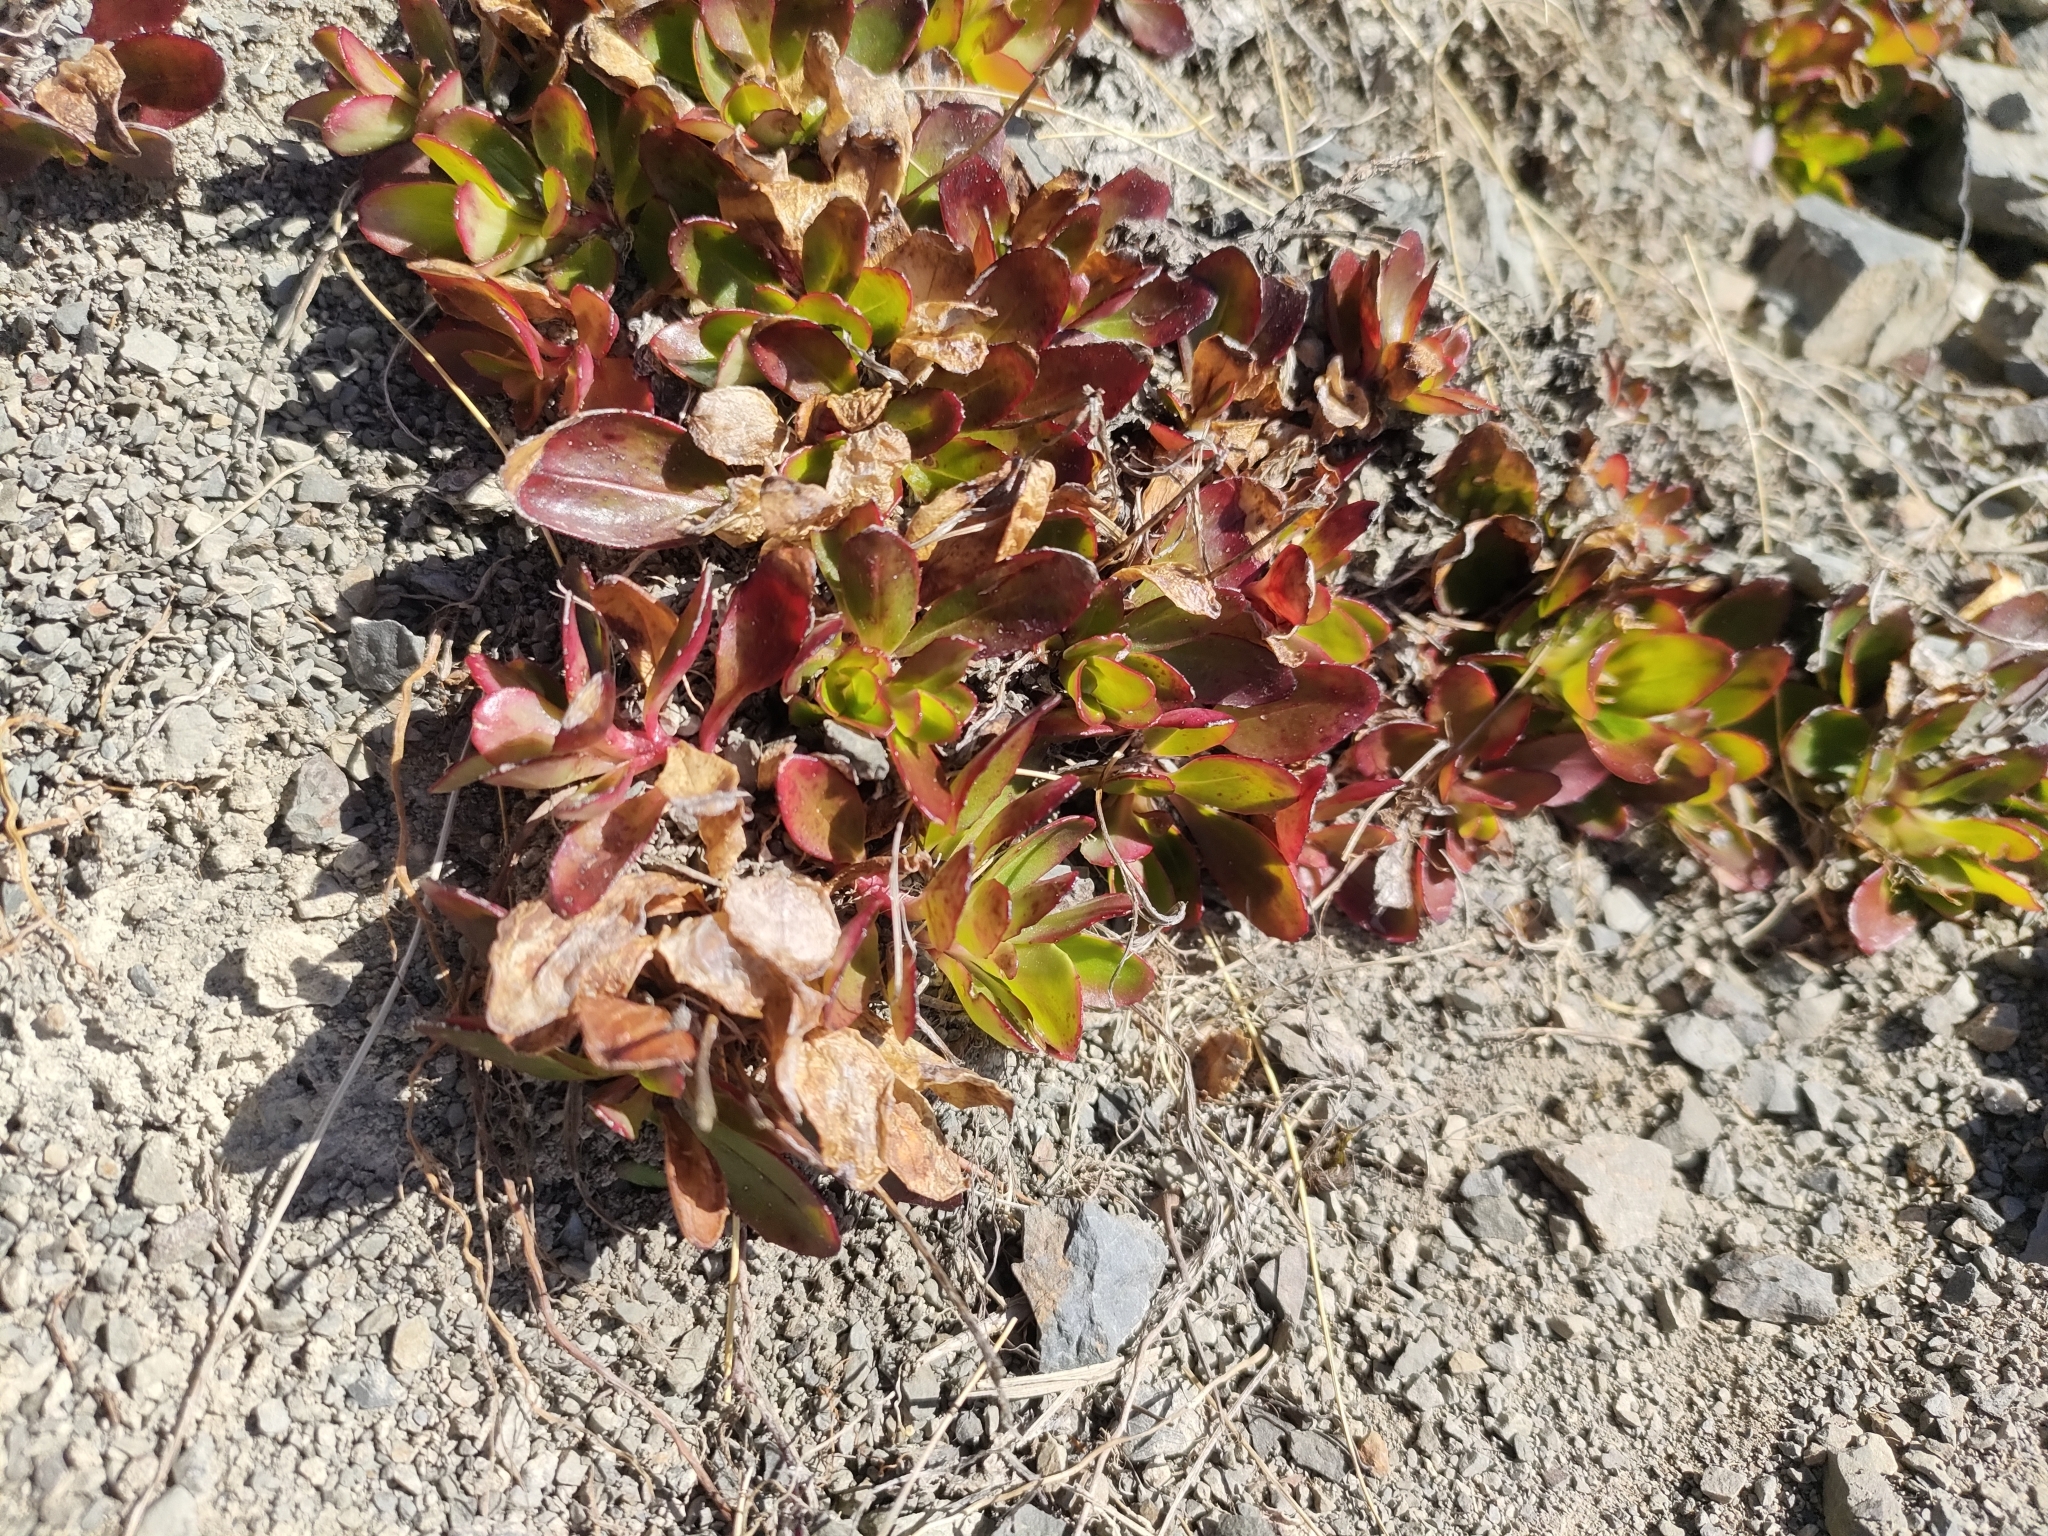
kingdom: Plantae
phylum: Tracheophyta
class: Magnoliopsida
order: Myrtales
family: Onagraceae
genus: Epilobium
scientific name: Epilobium crassum
